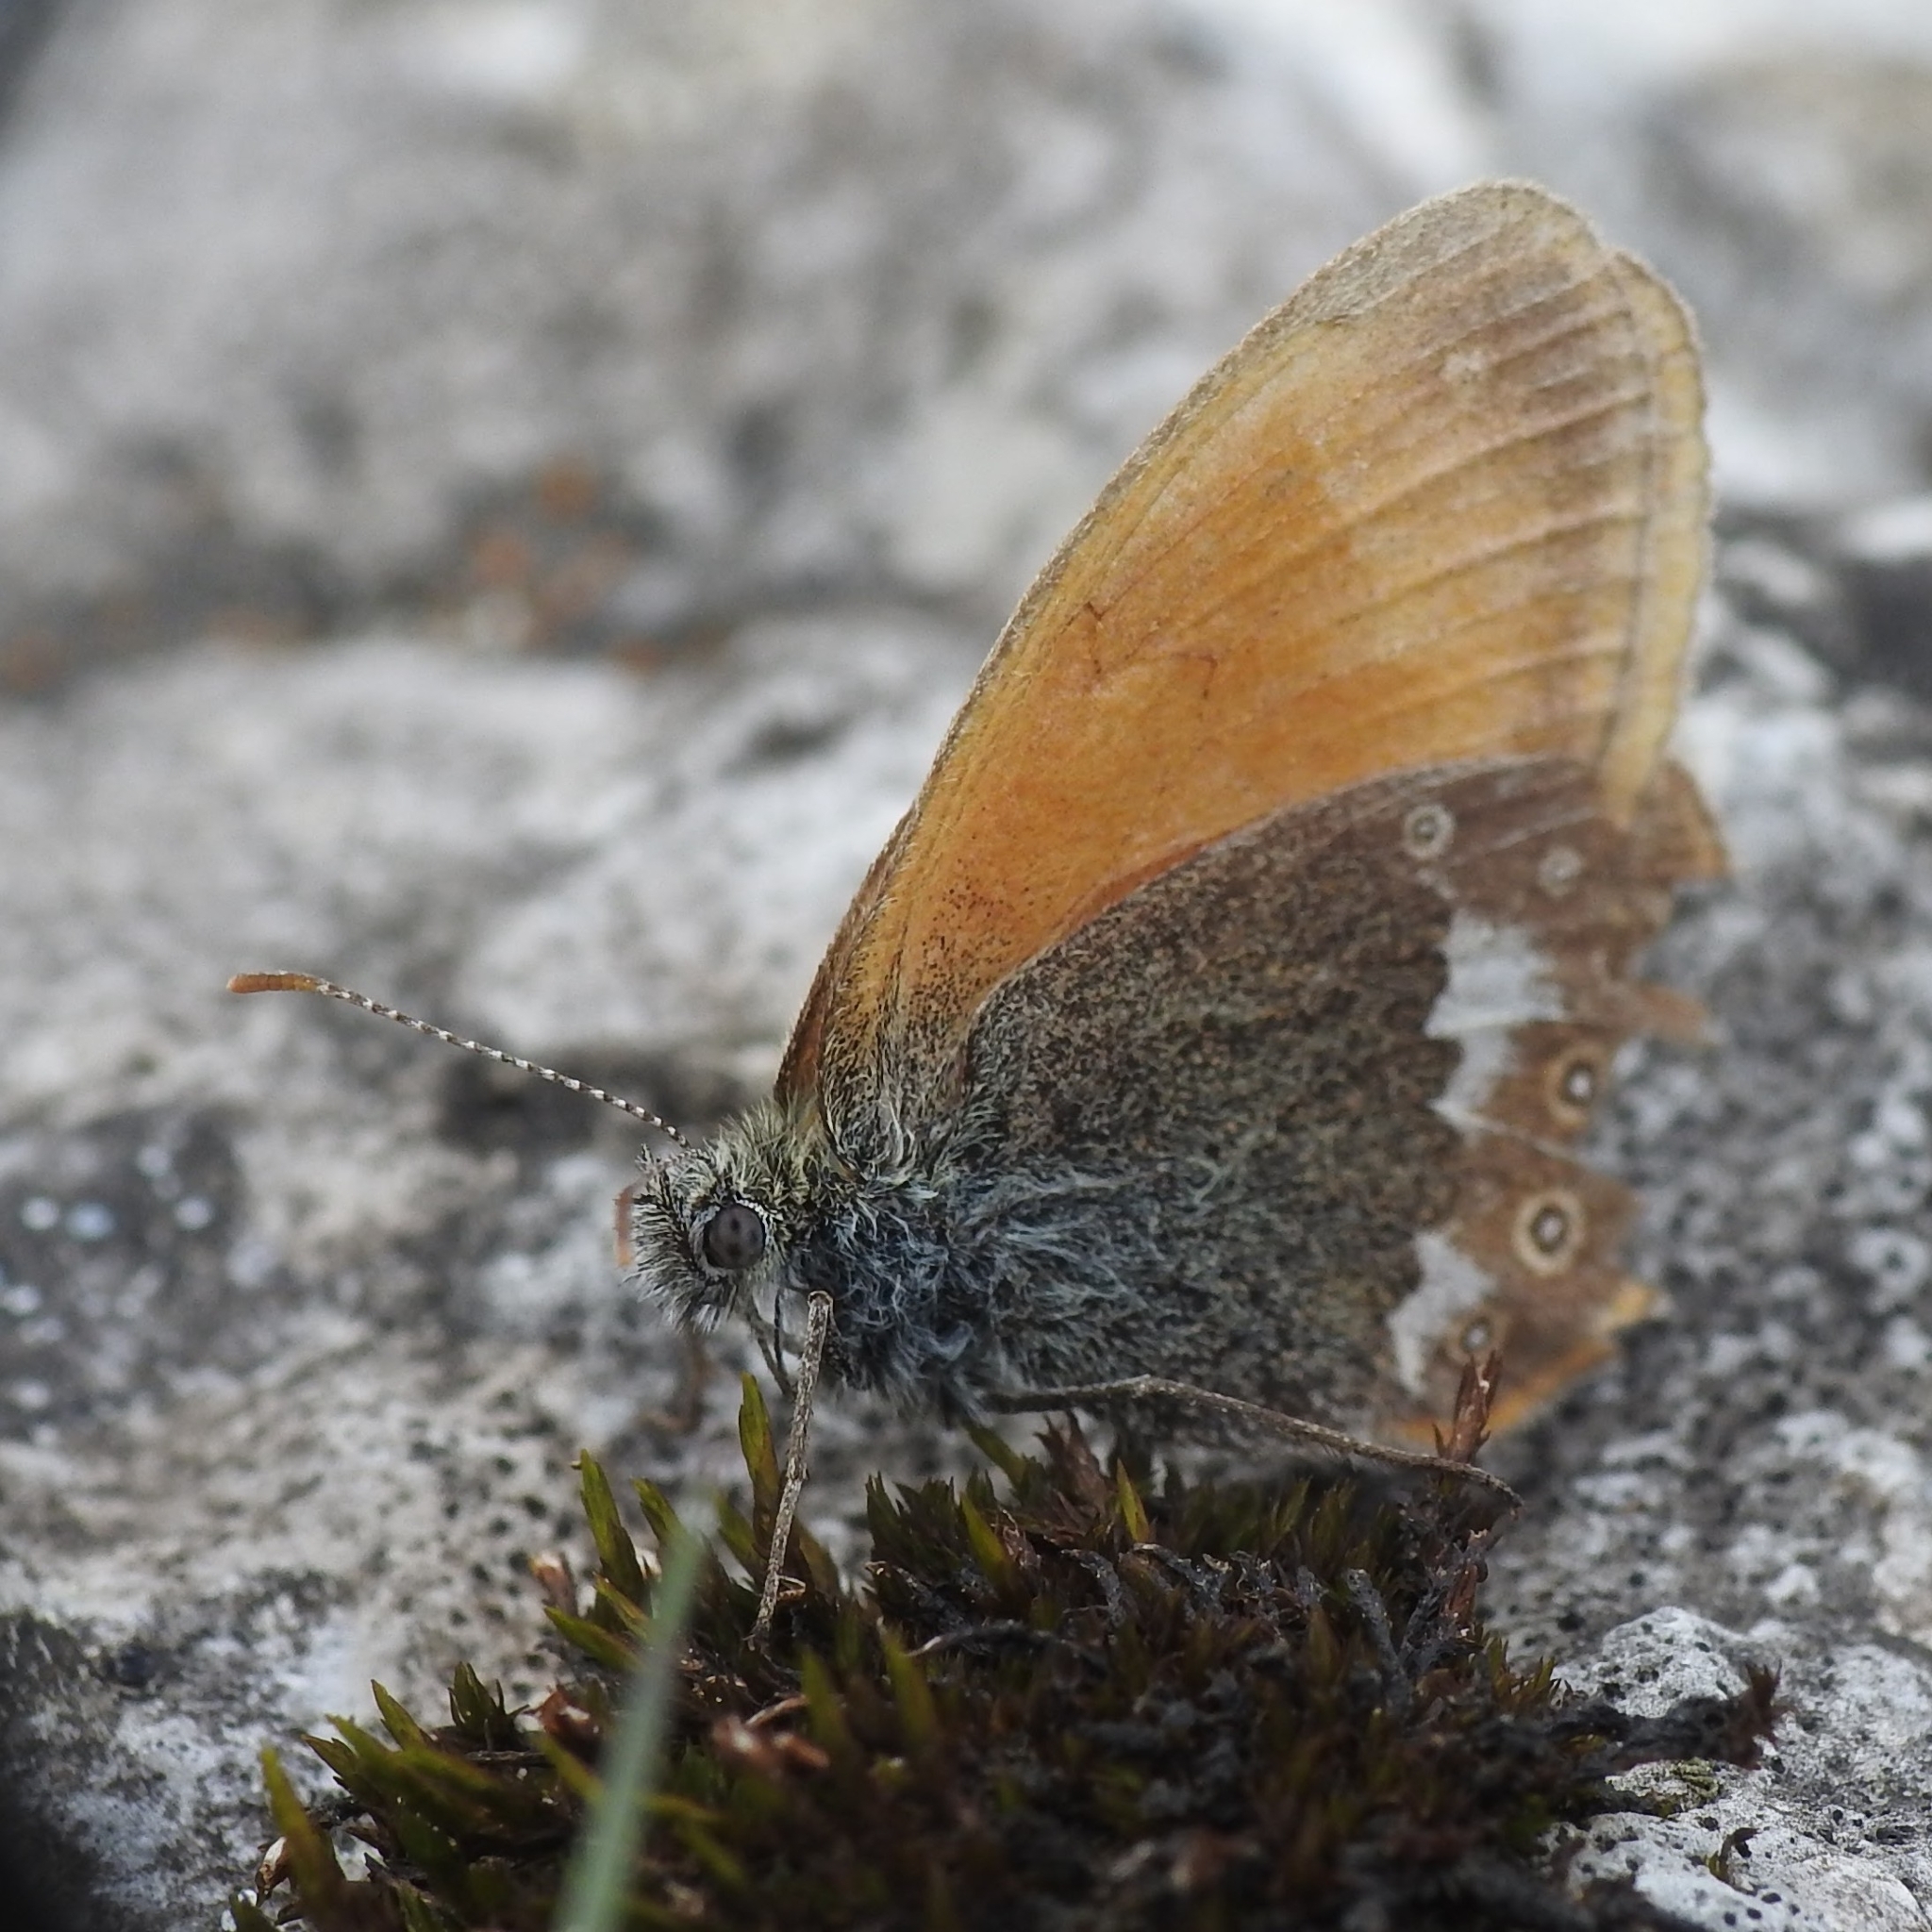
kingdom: Animalia
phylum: Arthropoda
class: Insecta
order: Lepidoptera
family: Nymphalidae
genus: Coenonympha
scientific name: Coenonympha iphis
